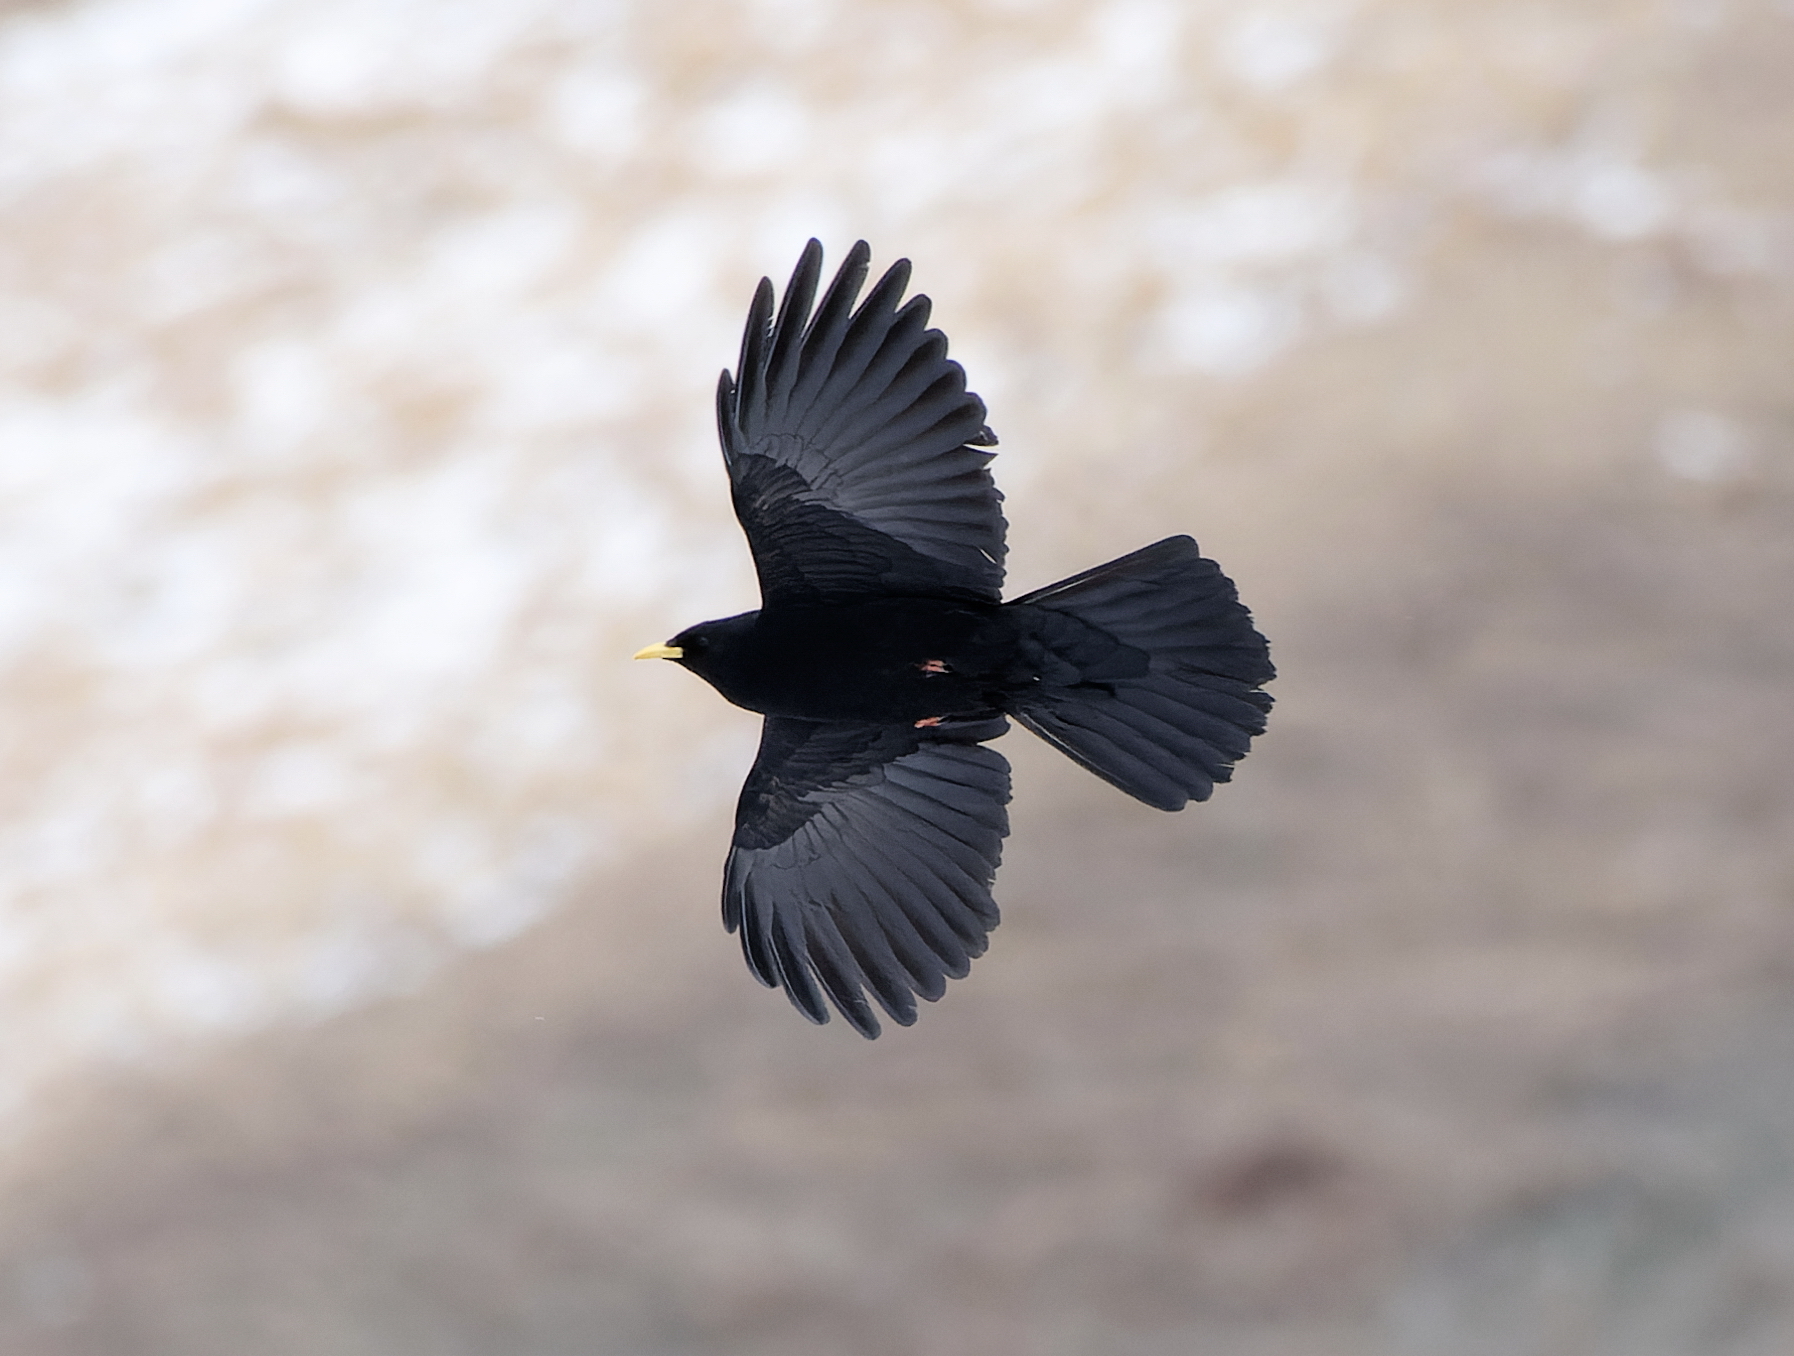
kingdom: Animalia
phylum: Chordata
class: Aves
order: Passeriformes
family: Corvidae
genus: Pyrrhocorax
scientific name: Pyrrhocorax graculus
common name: Alpine chough
